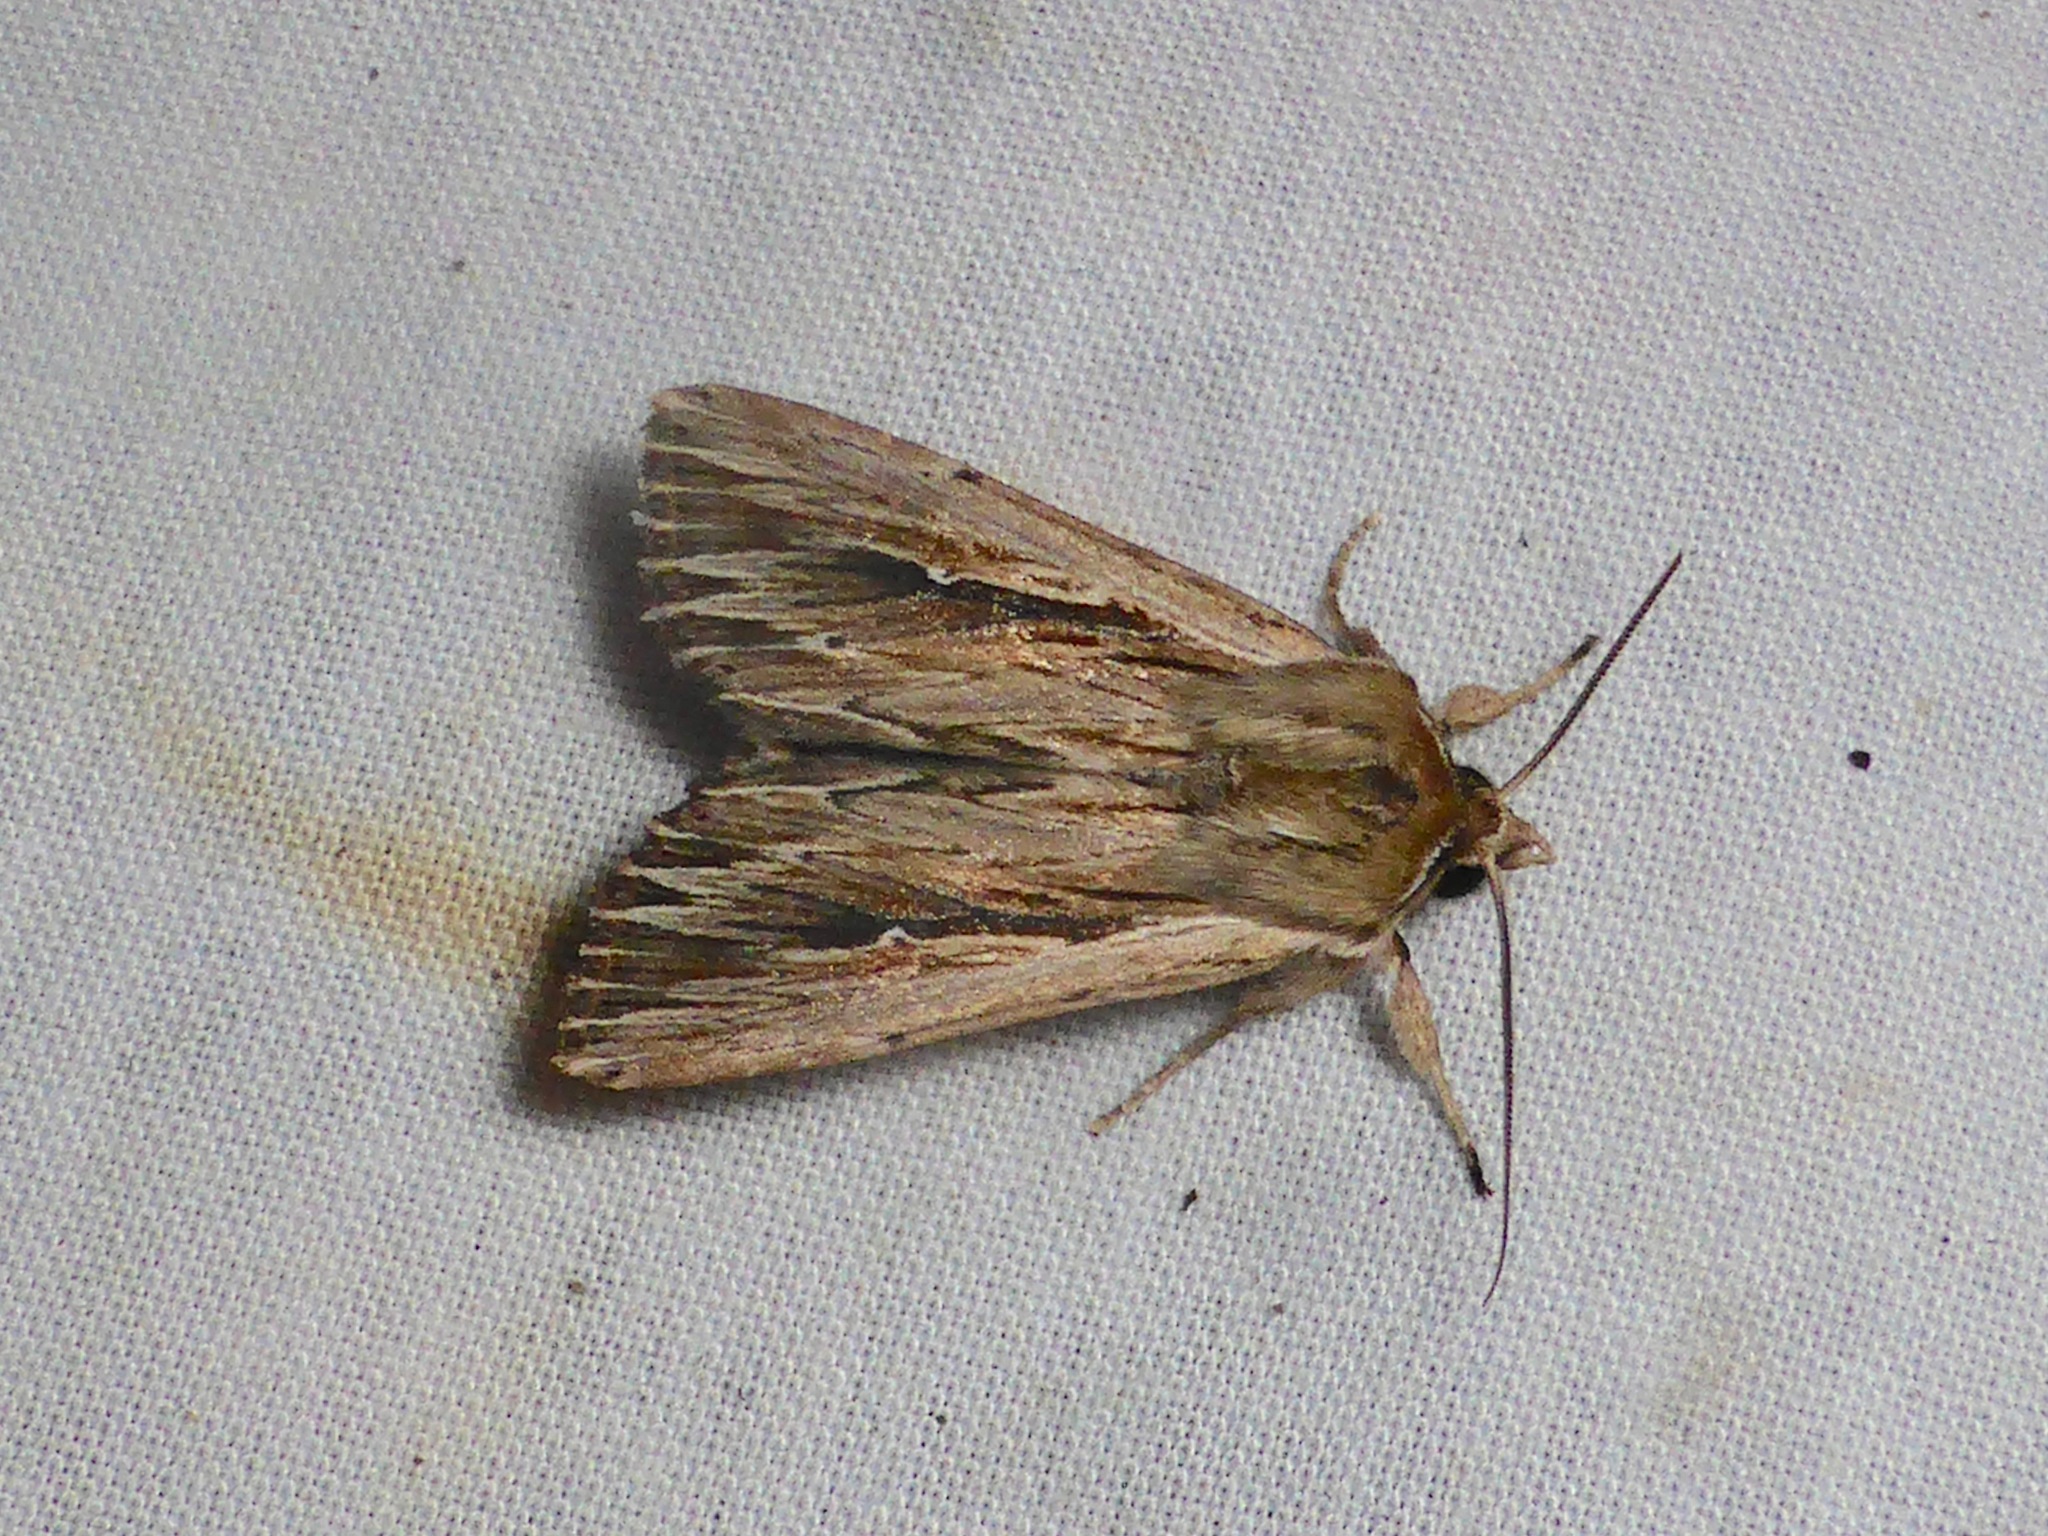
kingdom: Animalia
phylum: Arthropoda
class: Insecta
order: Lepidoptera
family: Noctuidae
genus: Persectania
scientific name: Persectania aversa
